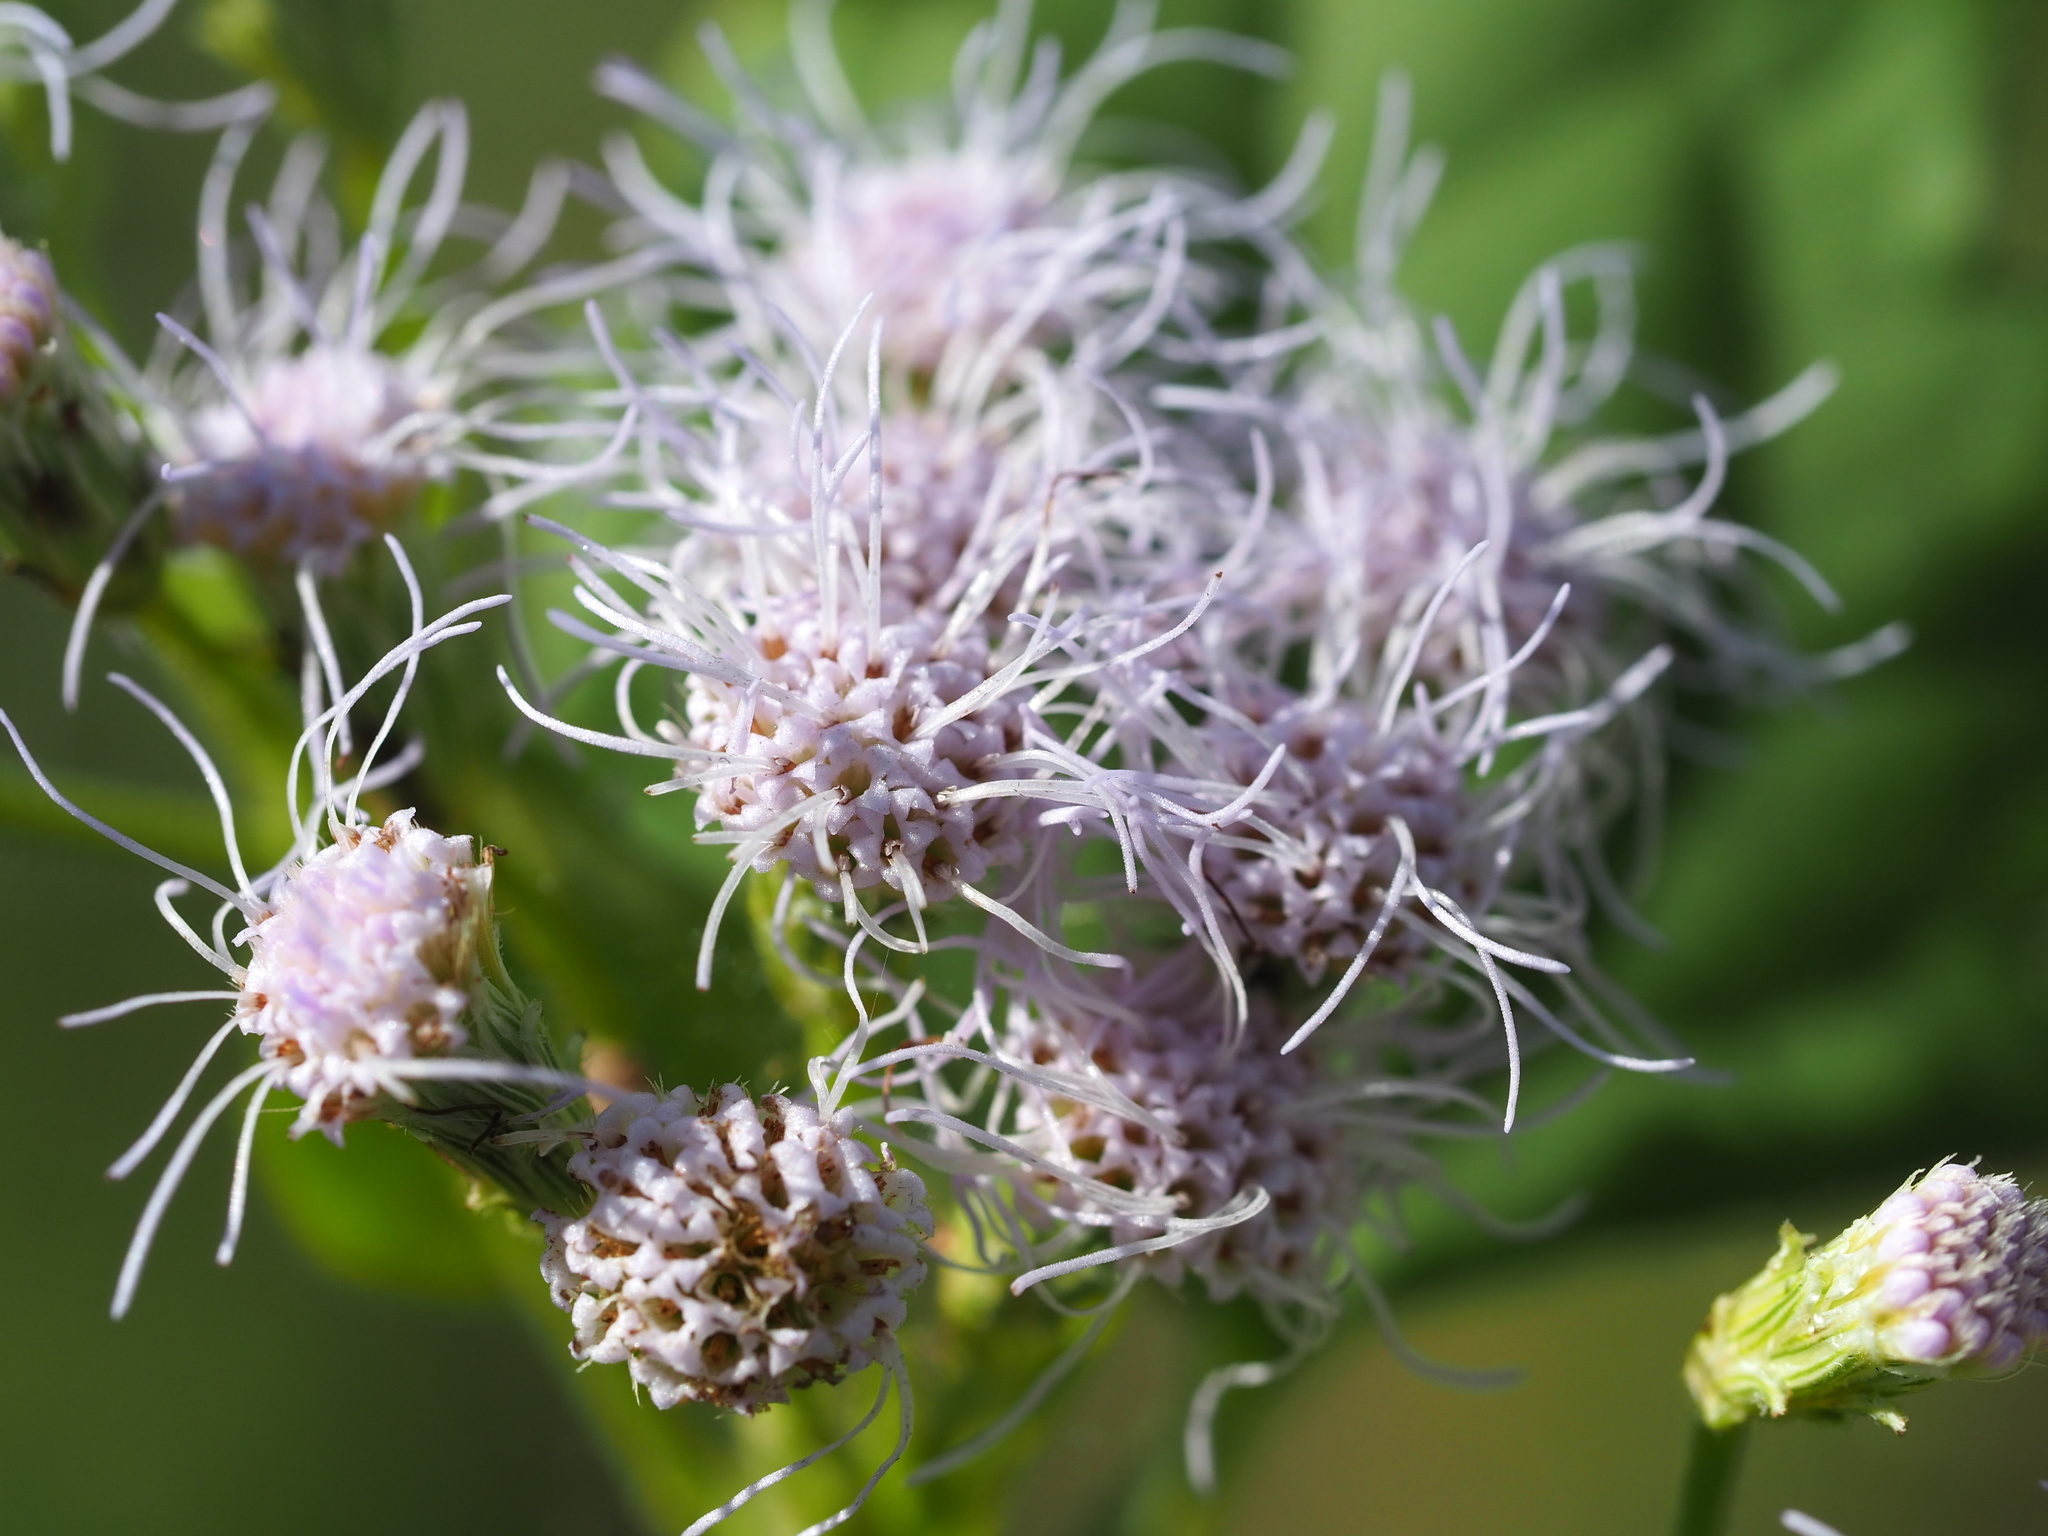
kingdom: Plantae
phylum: Tracheophyta
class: Magnoliopsida
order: Asterales
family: Asteraceae
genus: Chromolaena
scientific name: Chromolaena odorata
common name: Siamweed
